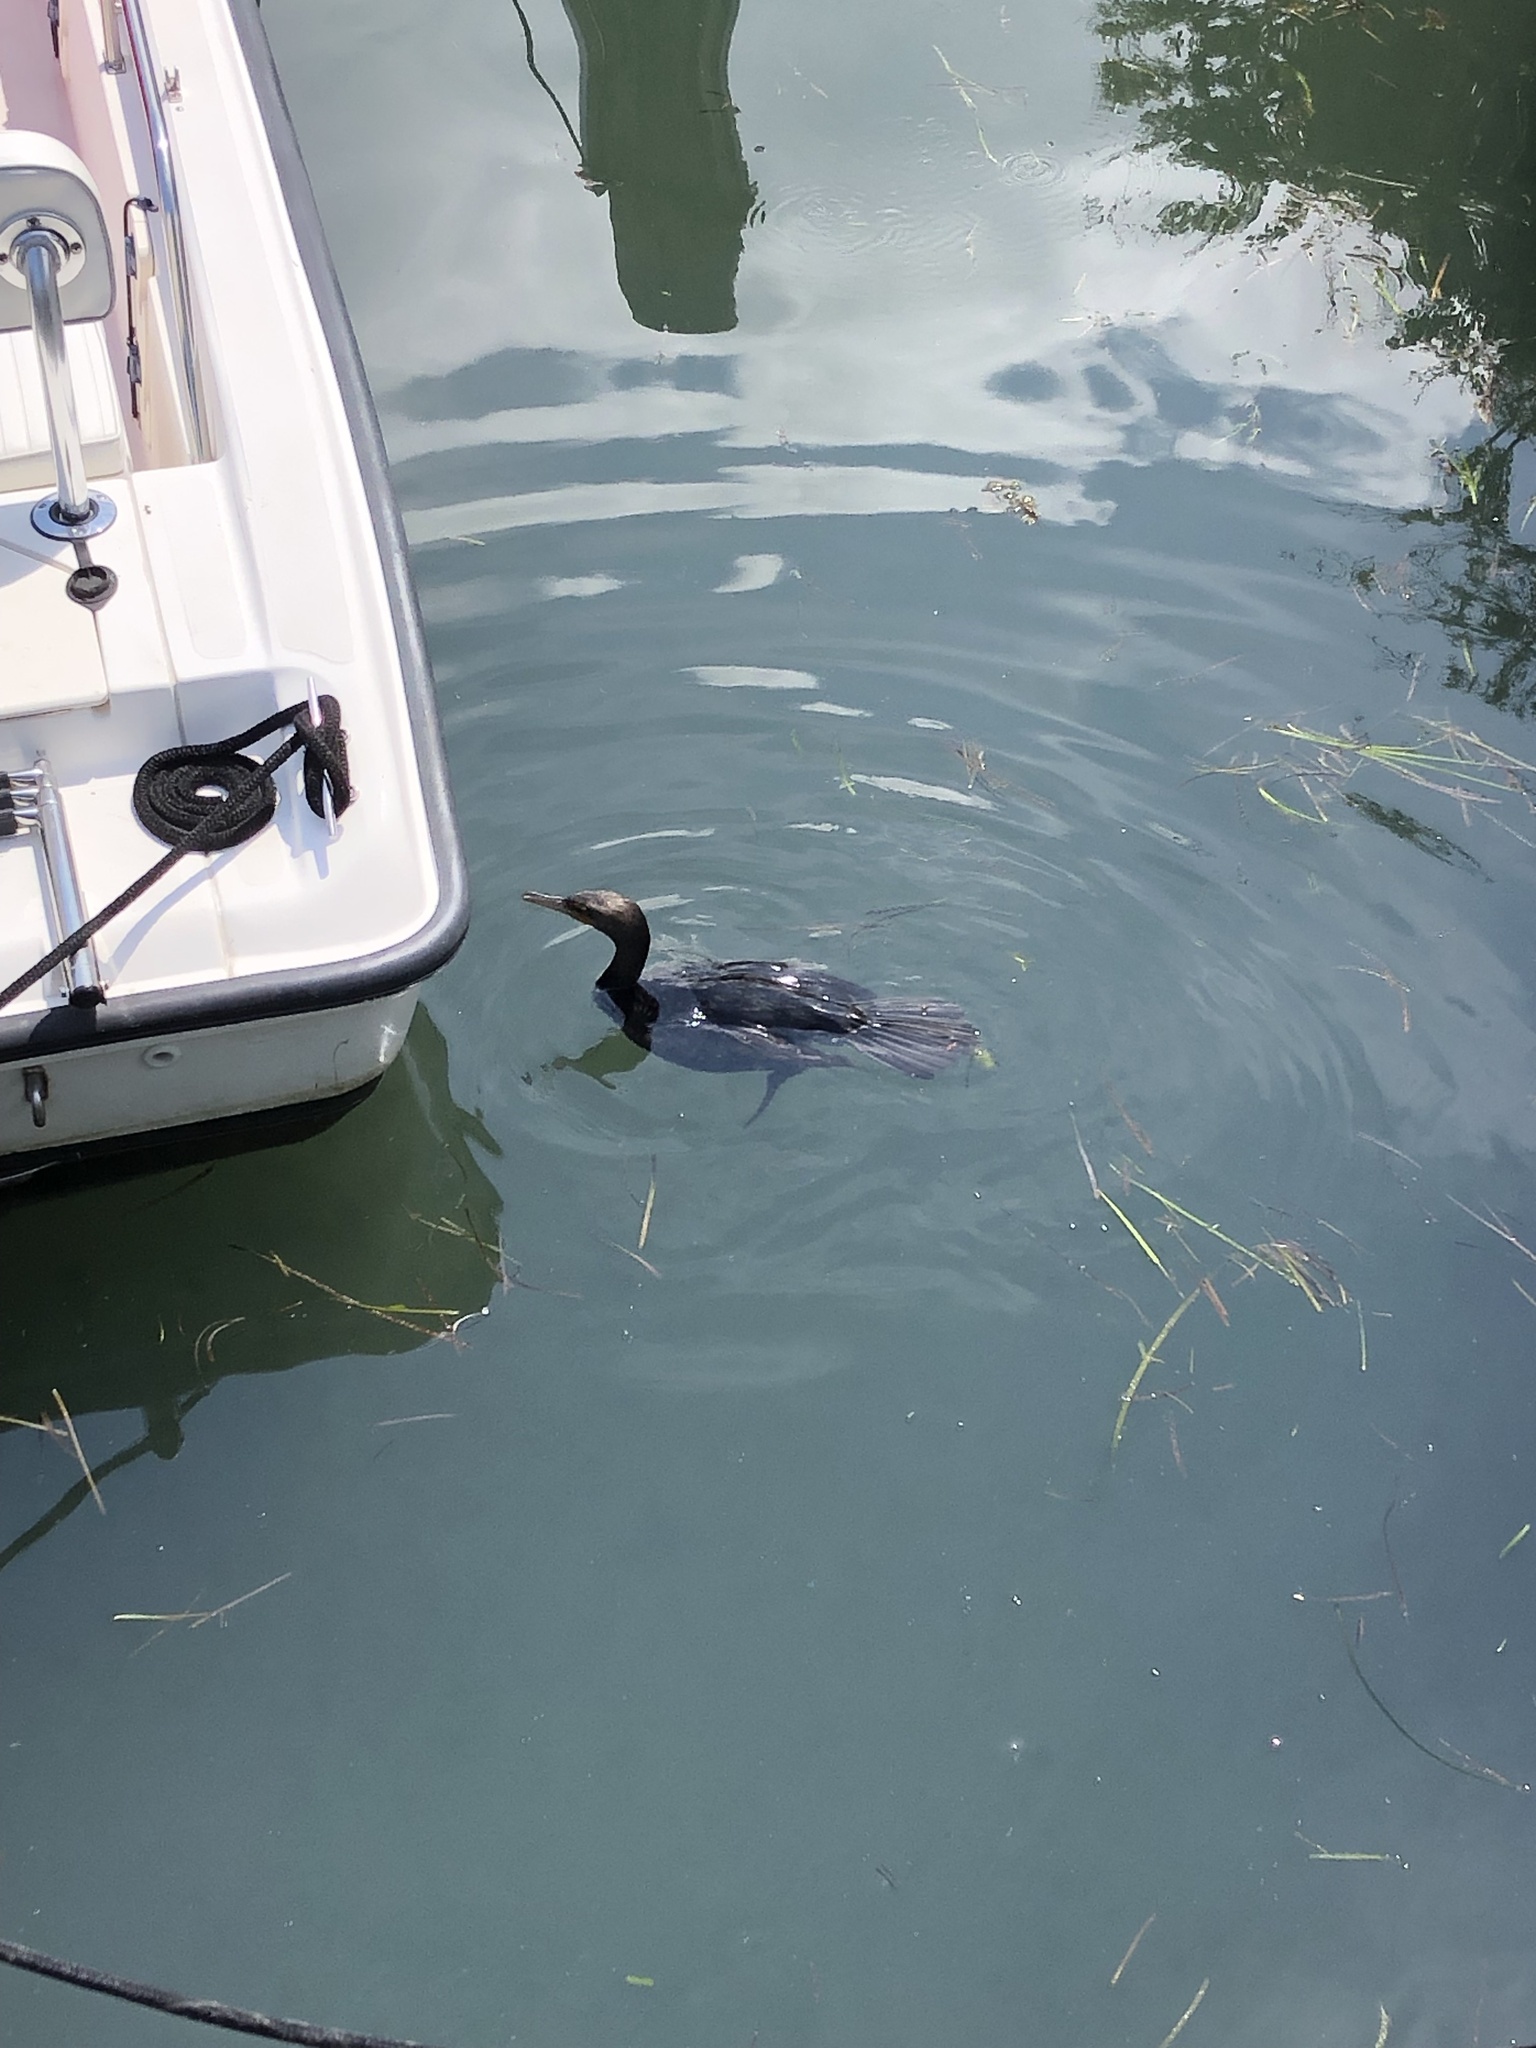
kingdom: Animalia
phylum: Chordata
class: Aves
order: Suliformes
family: Phalacrocoracidae
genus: Phalacrocorax
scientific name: Phalacrocorax auritus
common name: Double-crested cormorant
